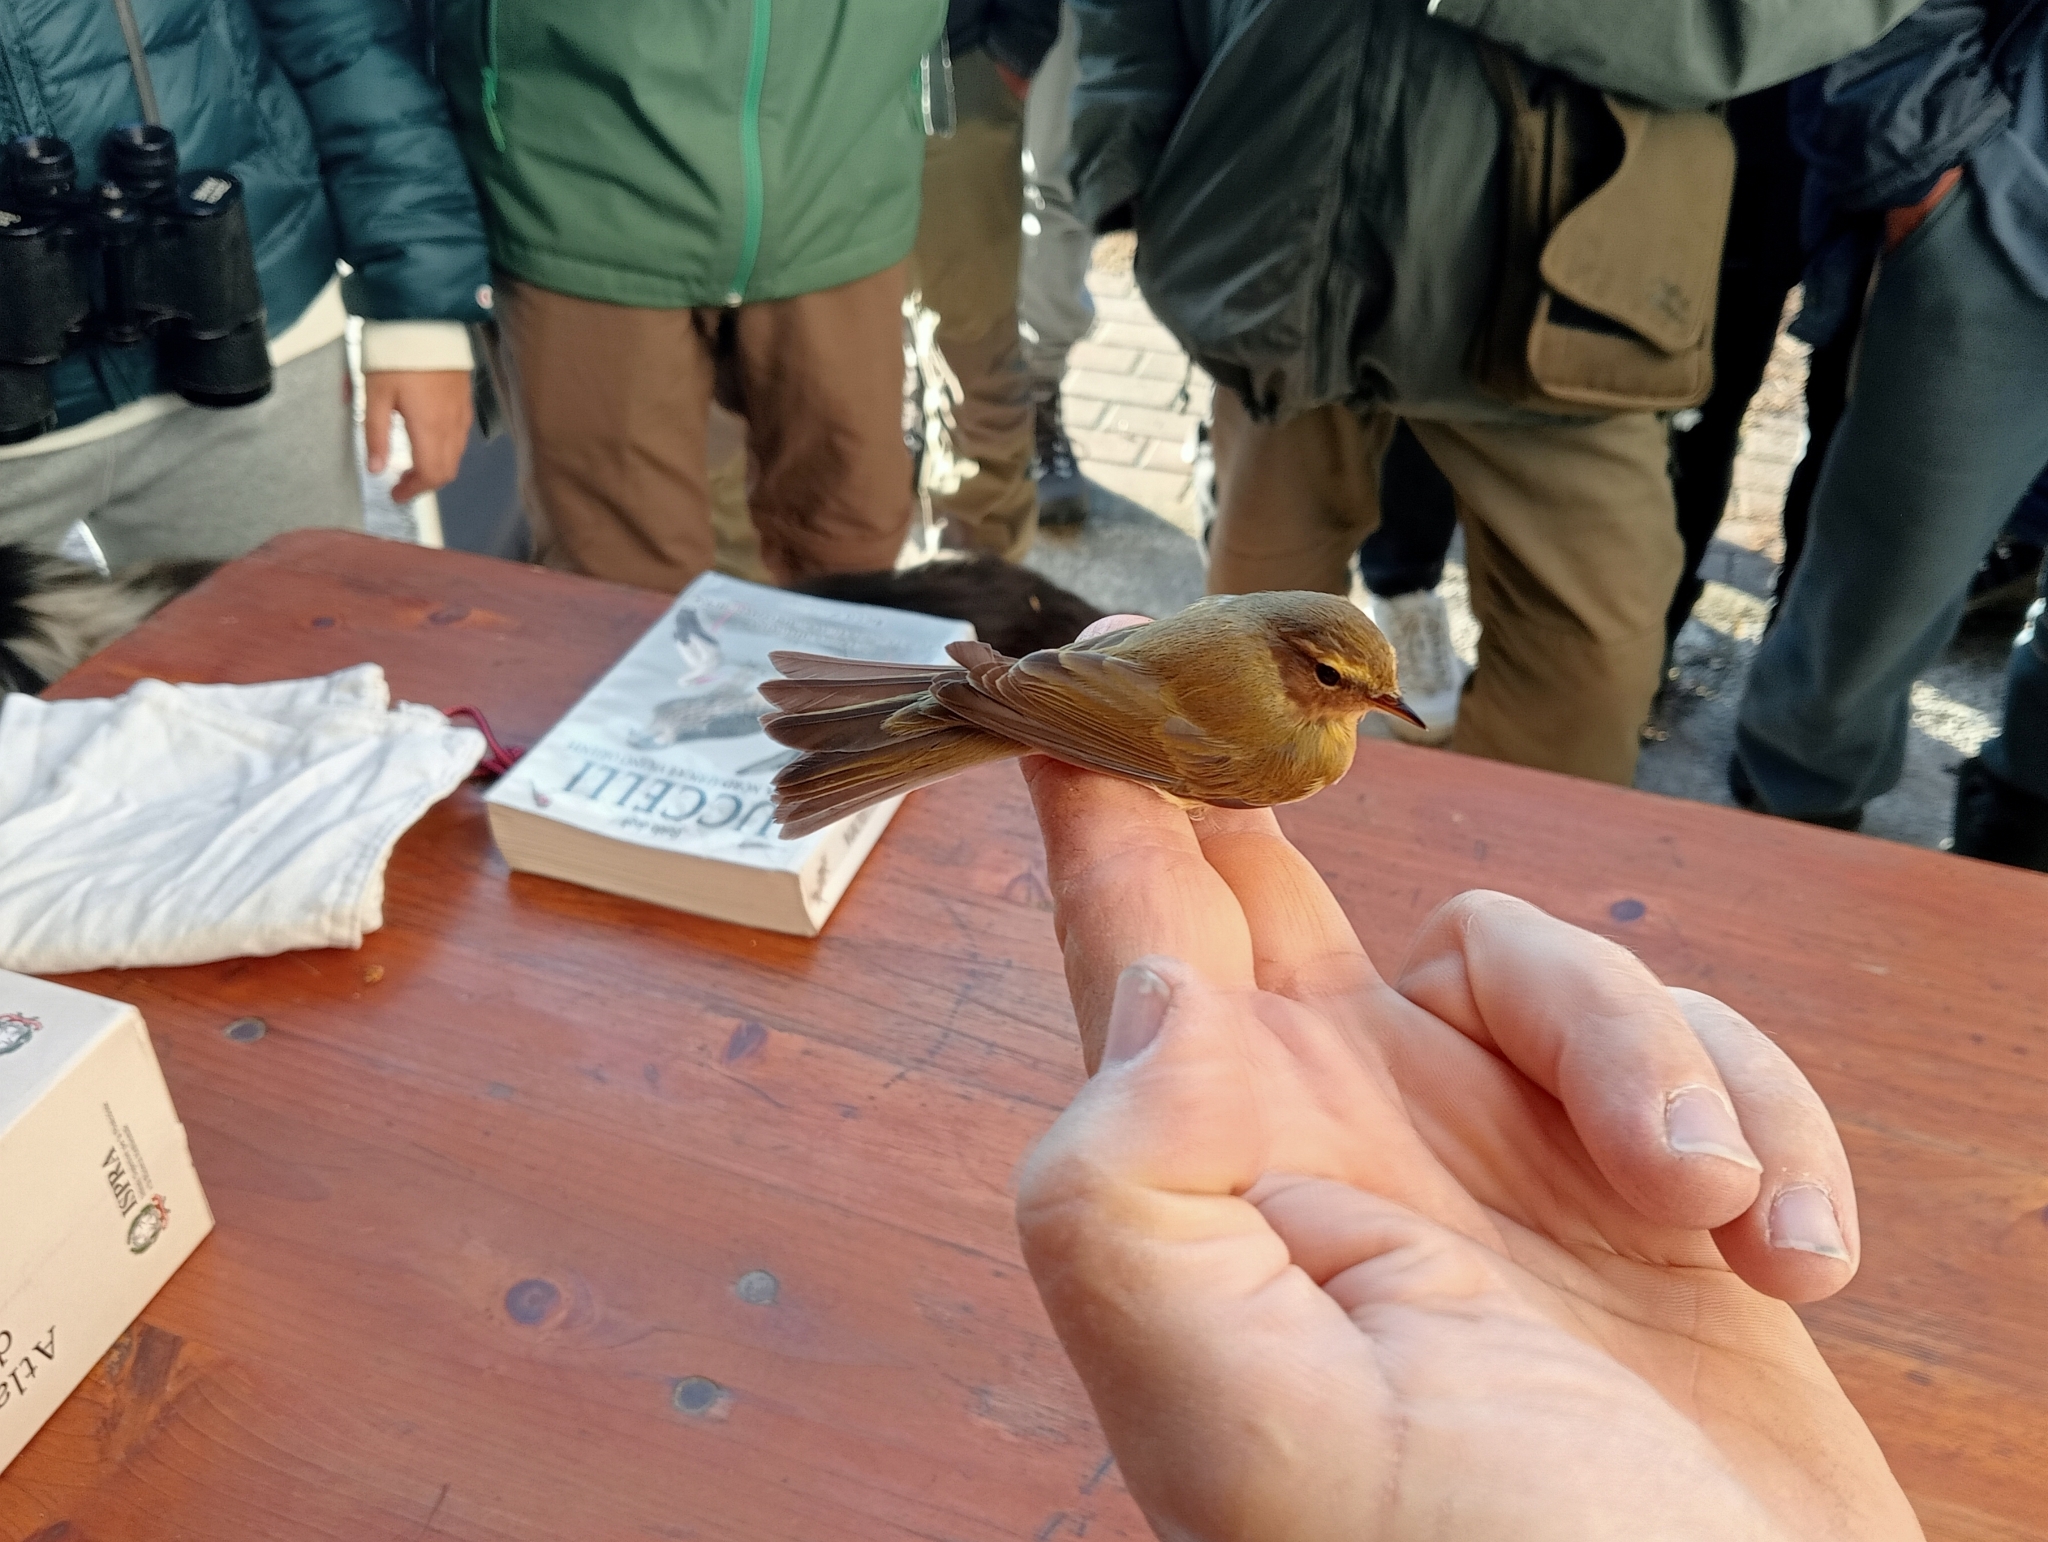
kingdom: Animalia
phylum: Chordata
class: Aves
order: Passeriformes
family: Phylloscopidae
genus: Phylloscopus
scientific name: Phylloscopus collybita
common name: Common chiffchaff
